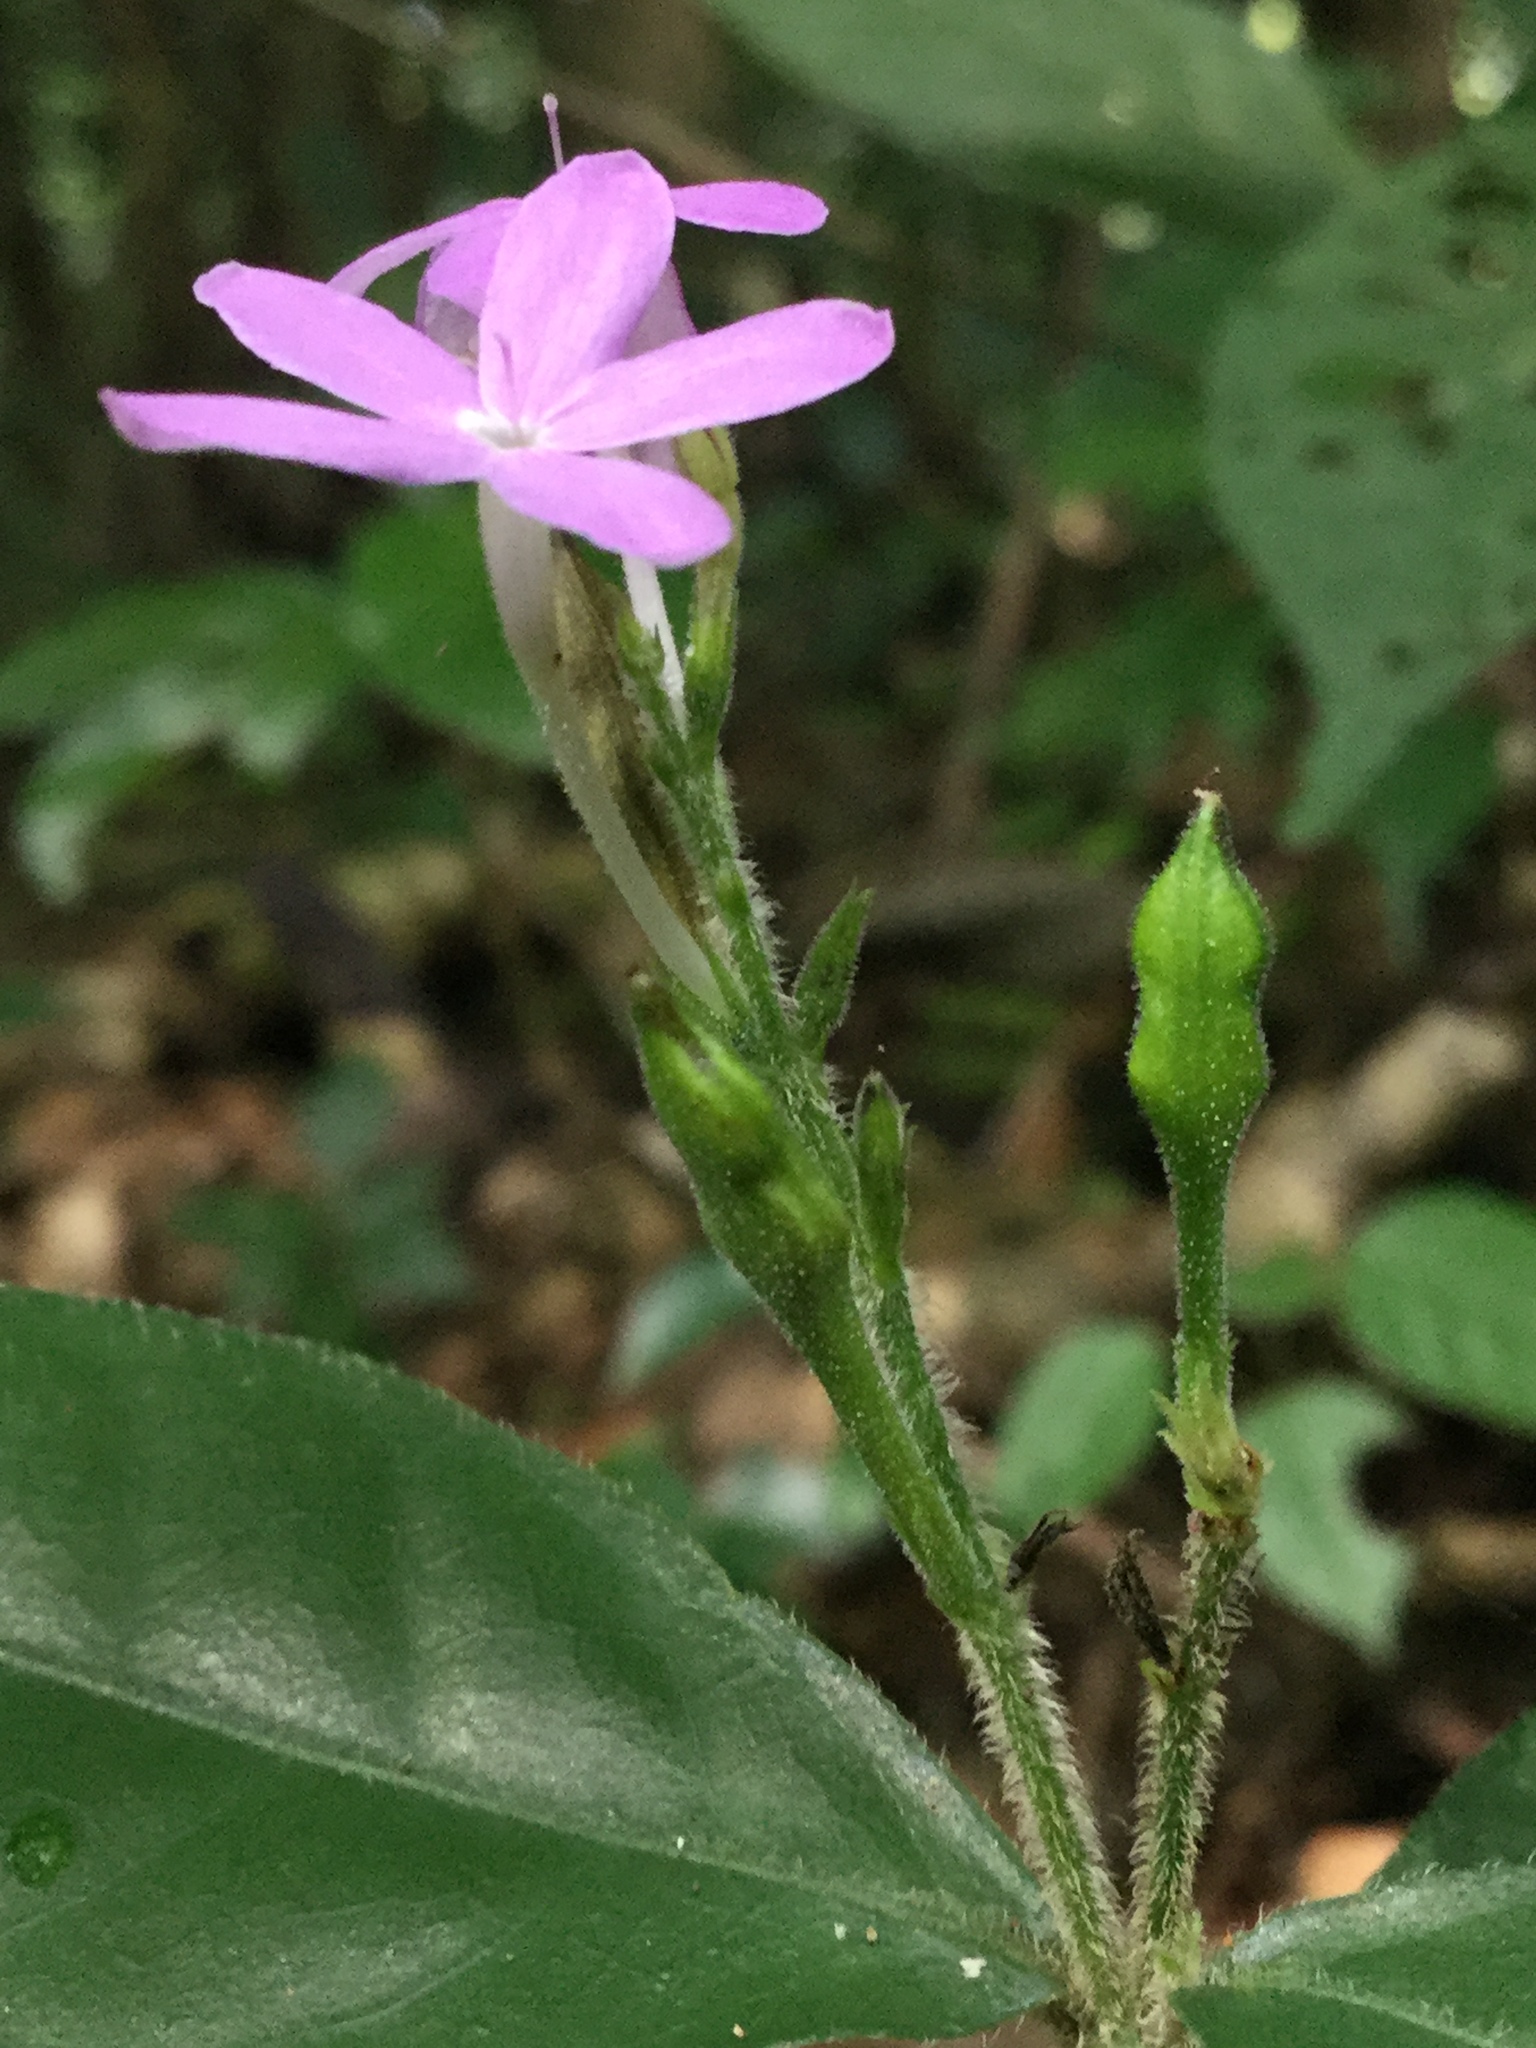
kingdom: Plantae
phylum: Tracheophyta
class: Magnoliopsida
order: Lamiales
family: Acanthaceae
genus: Pseuderanthemum
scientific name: Pseuderanthemum verapazense
